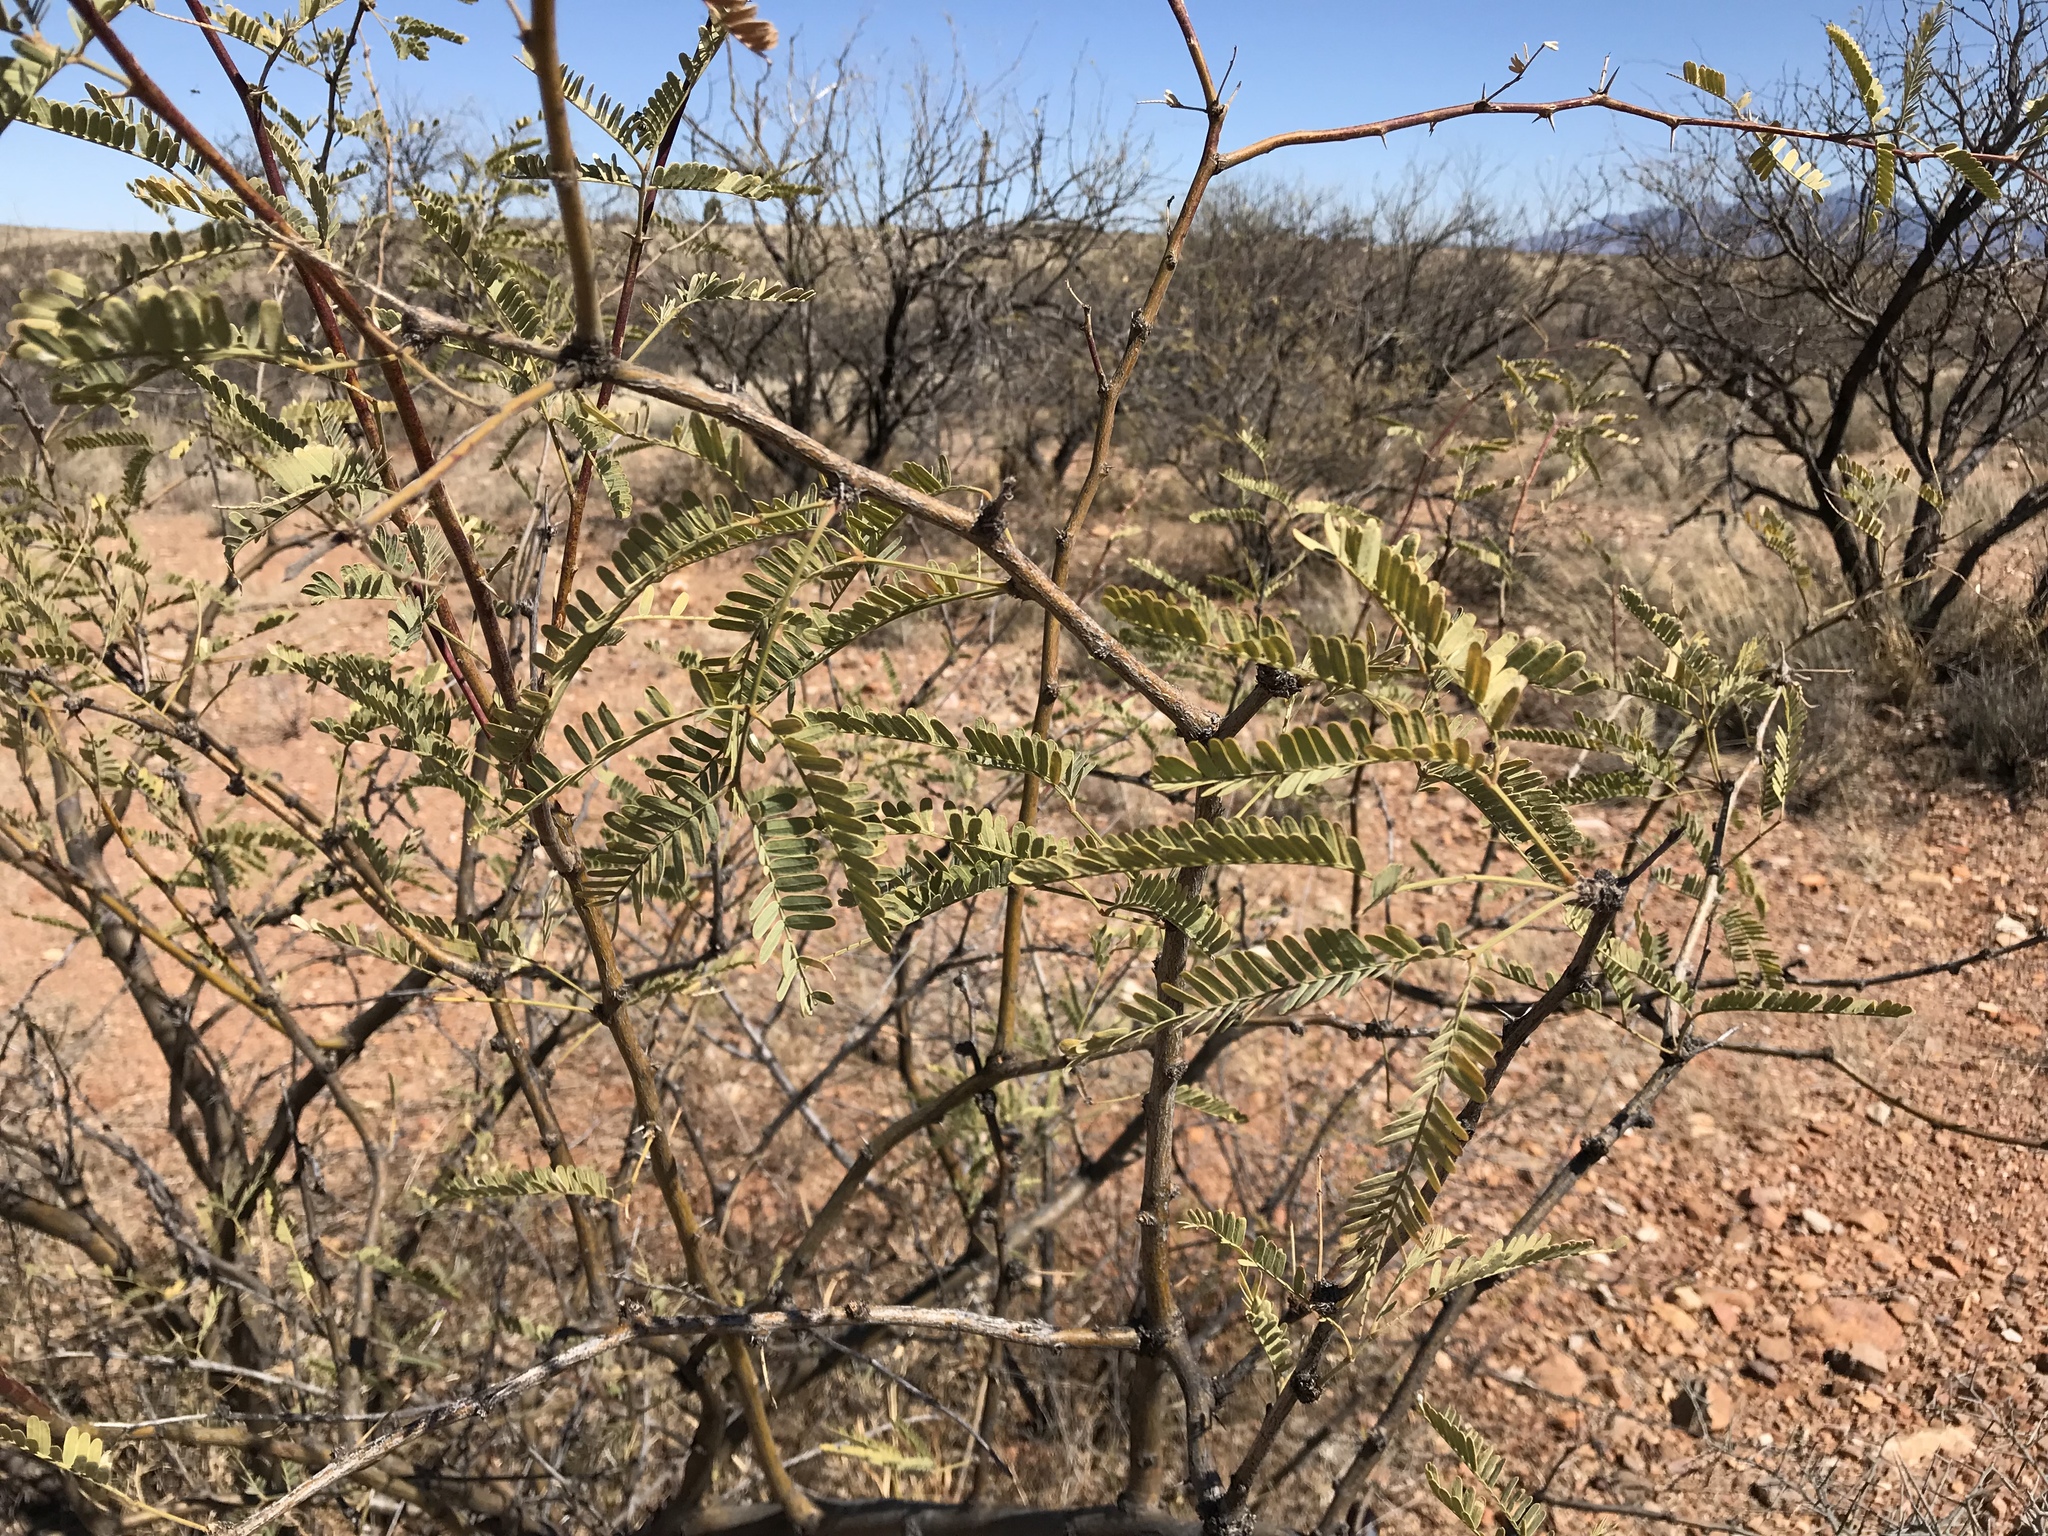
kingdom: Plantae
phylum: Tracheophyta
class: Magnoliopsida
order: Fabales
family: Fabaceae
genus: Prosopis
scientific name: Prosopis velutina
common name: Velvet mesquite
